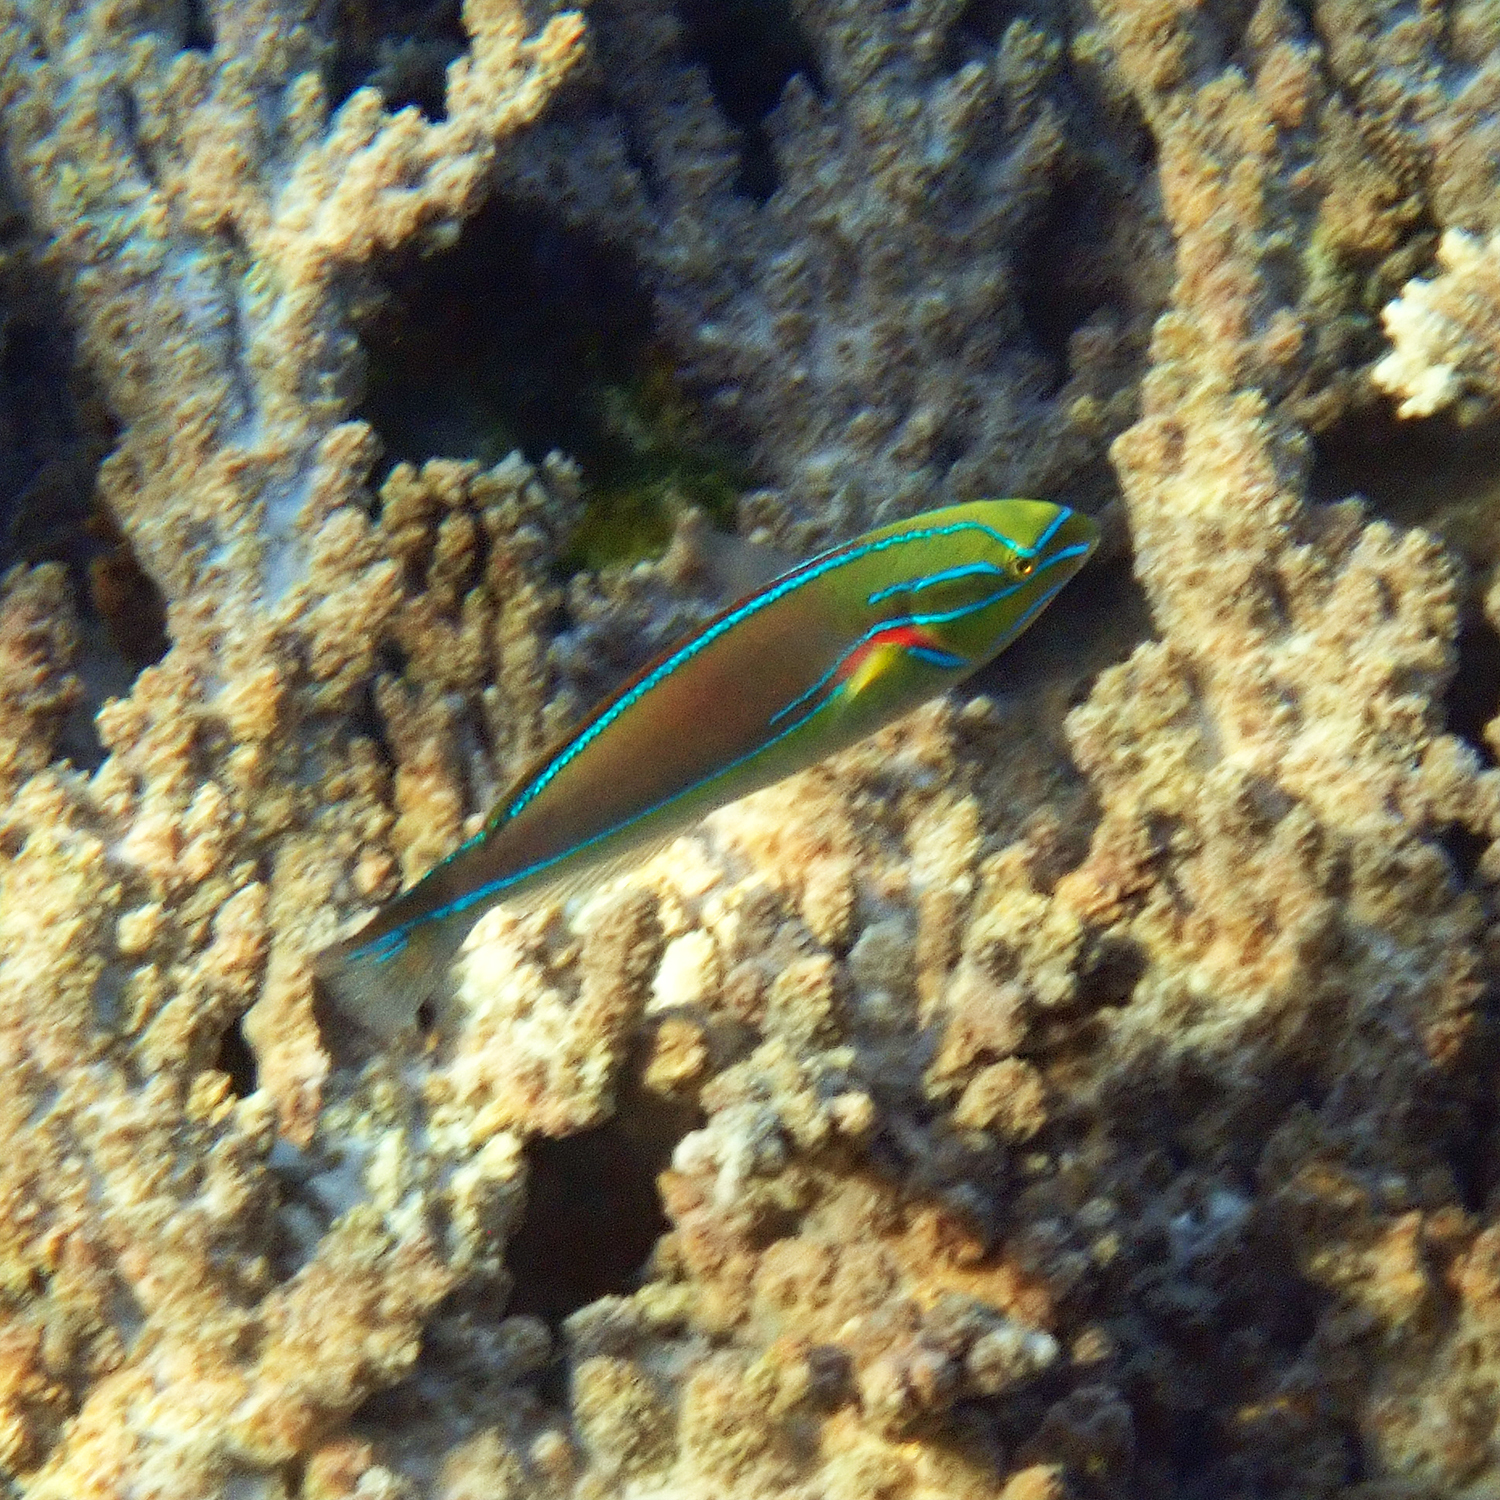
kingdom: Animalia
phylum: Chordata
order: Perciformes
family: Labridae
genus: Stethojulis
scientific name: Stethojulis bandanensis
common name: Red shoulder wrasse
